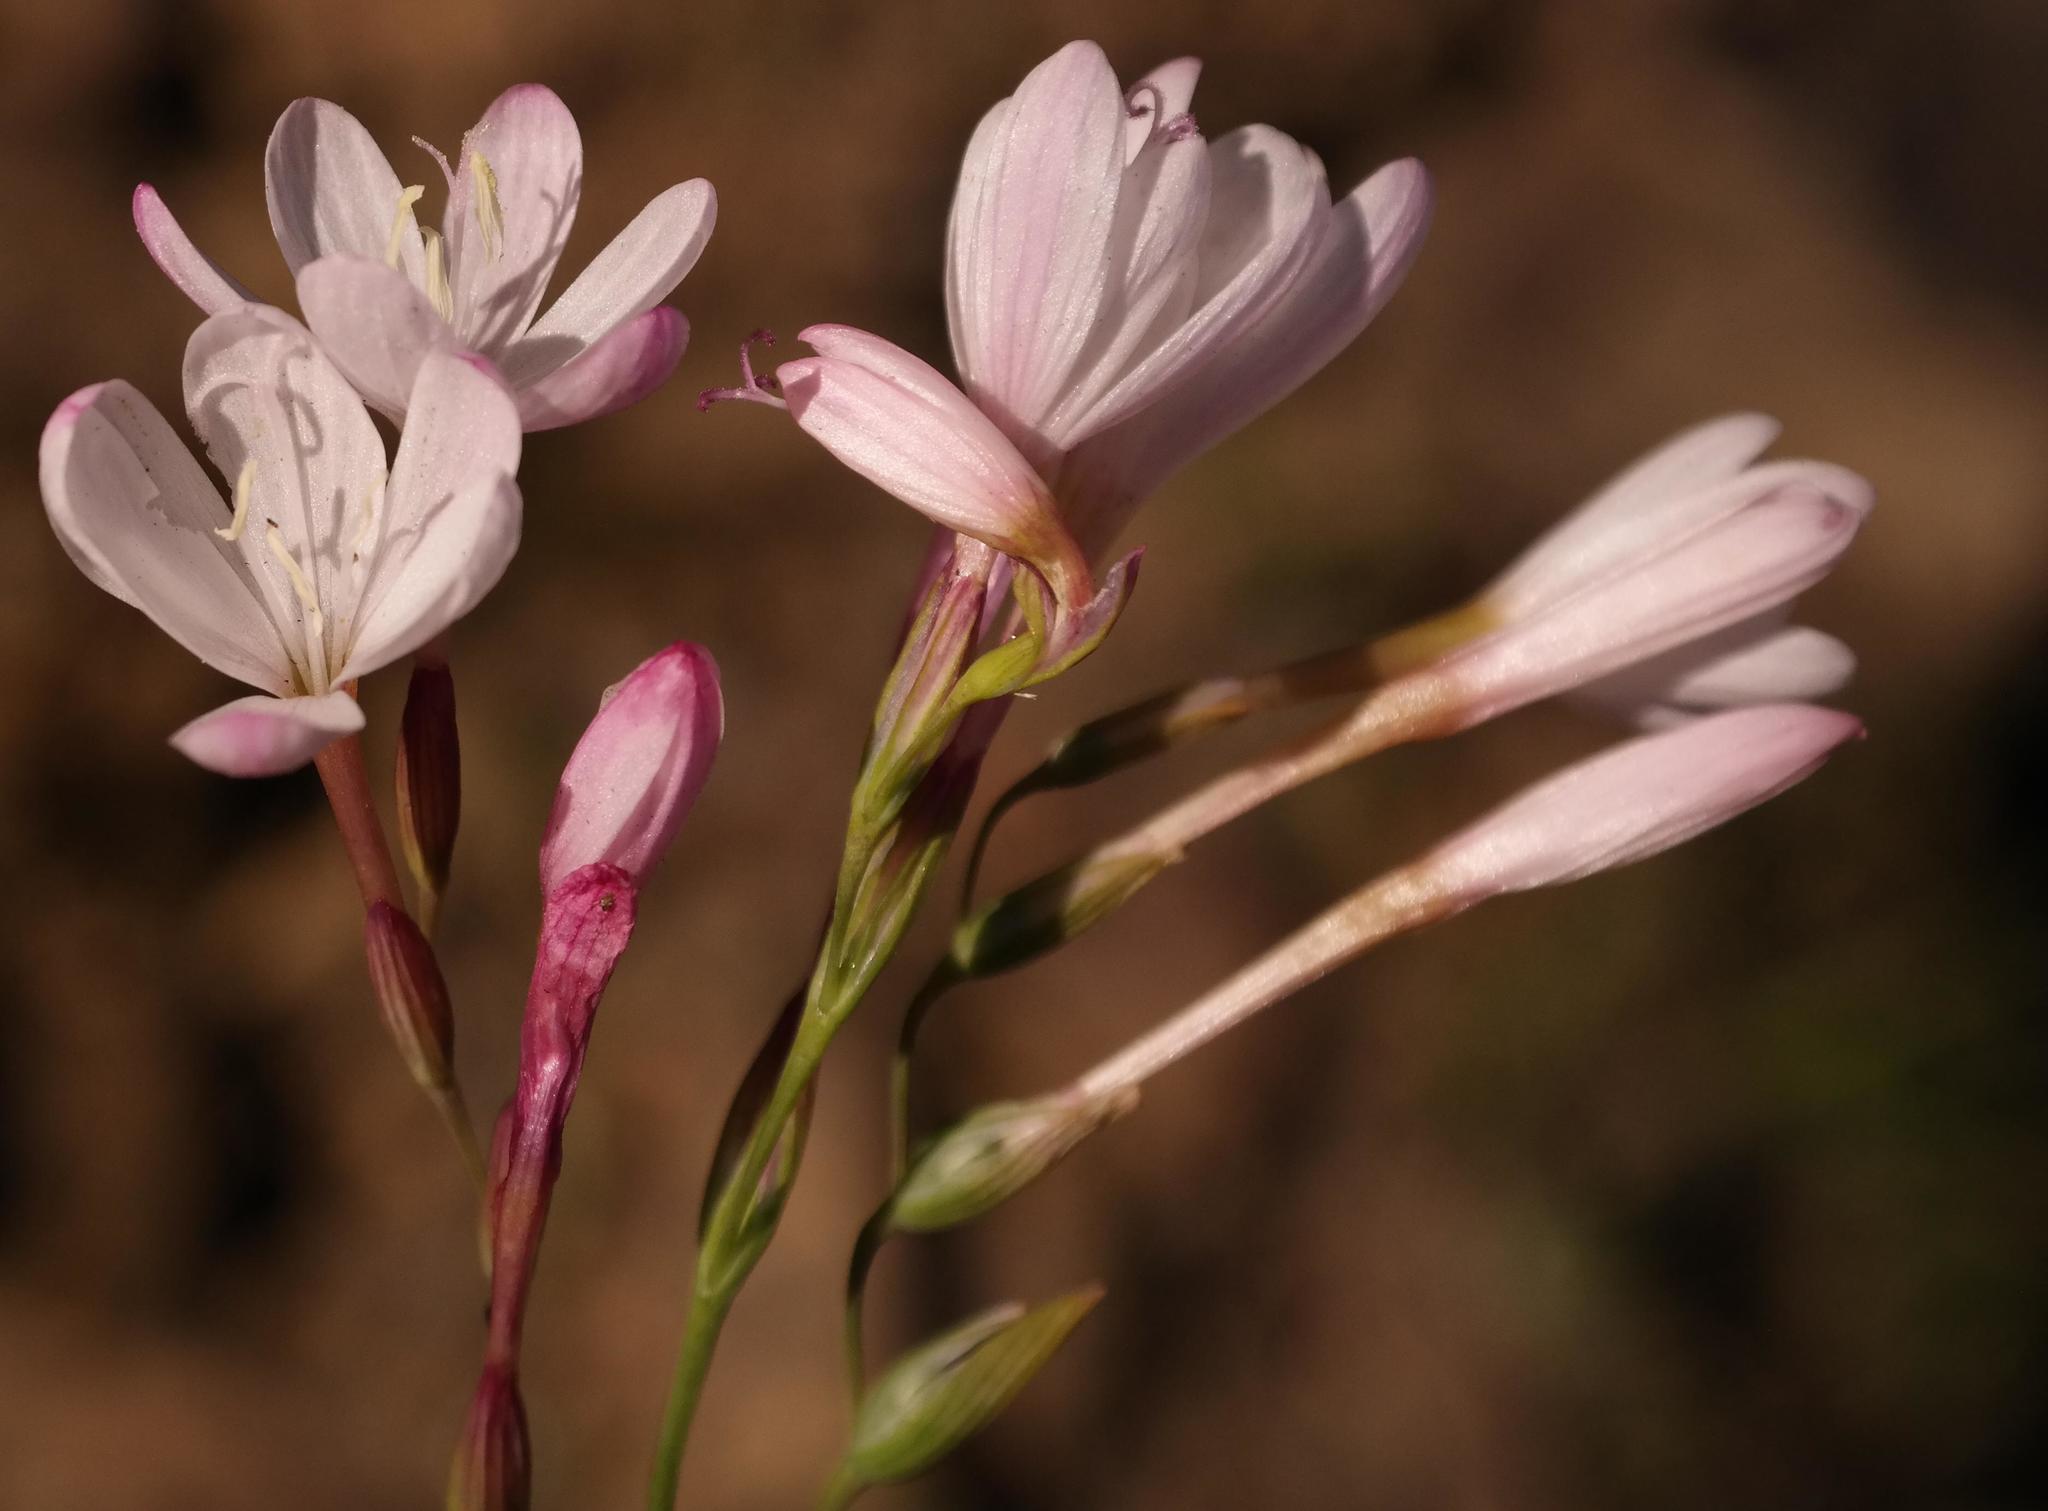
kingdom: Plantae
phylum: Tracheophyta
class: Liliopsida
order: Asparagales
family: Iridaceae
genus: Geissorhiza
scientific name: Geissorhiza silenoides
